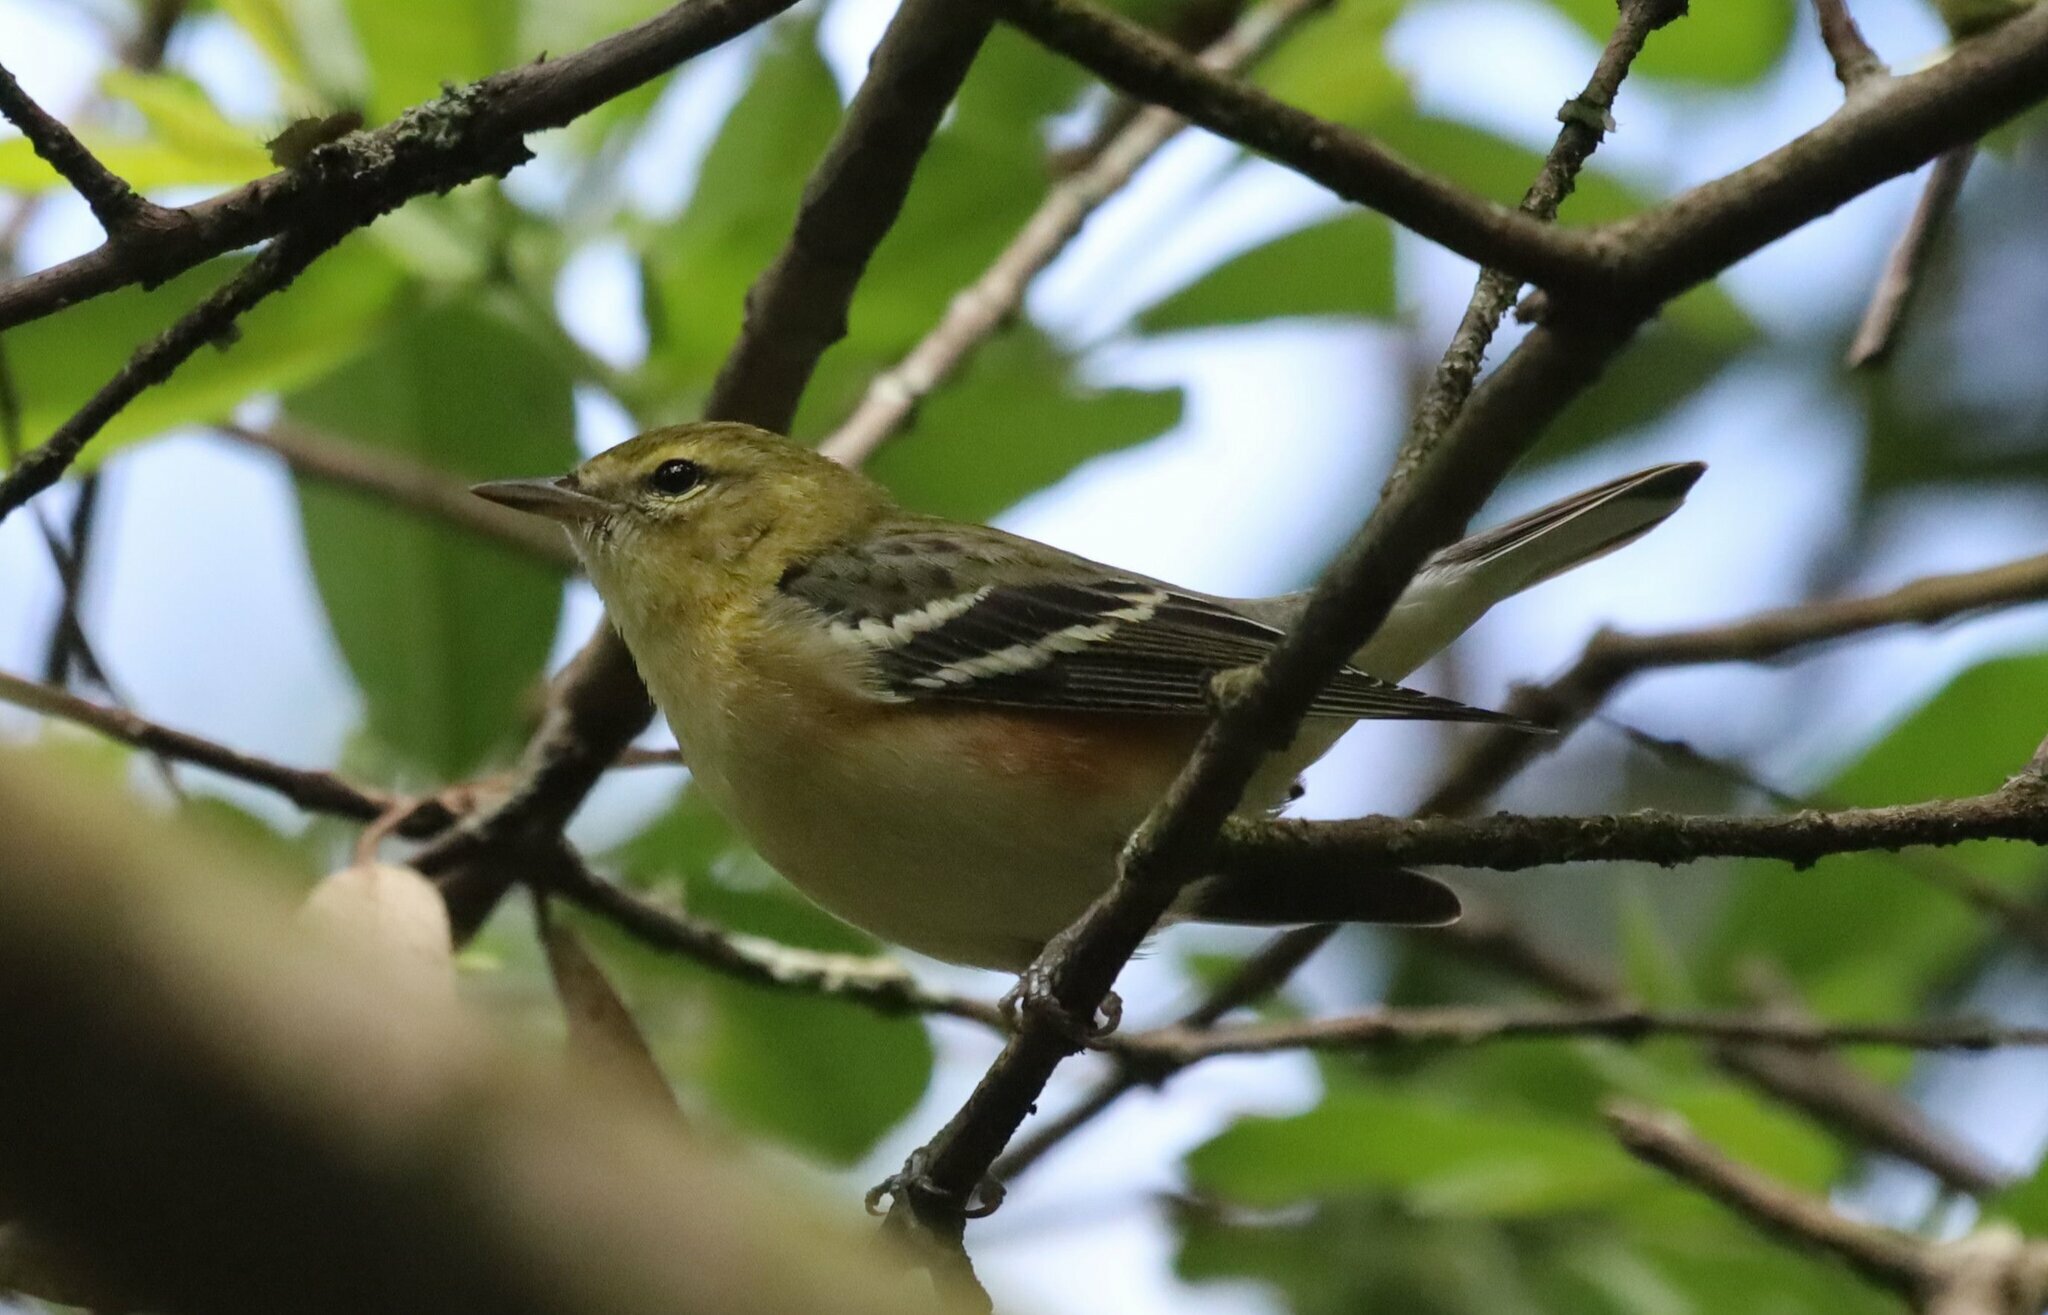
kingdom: Animalia
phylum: Chordata
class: Aves
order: Passeriformes
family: Parulidae
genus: Setophaga
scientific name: Setophaga castanea
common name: Bay-breasted warbler
